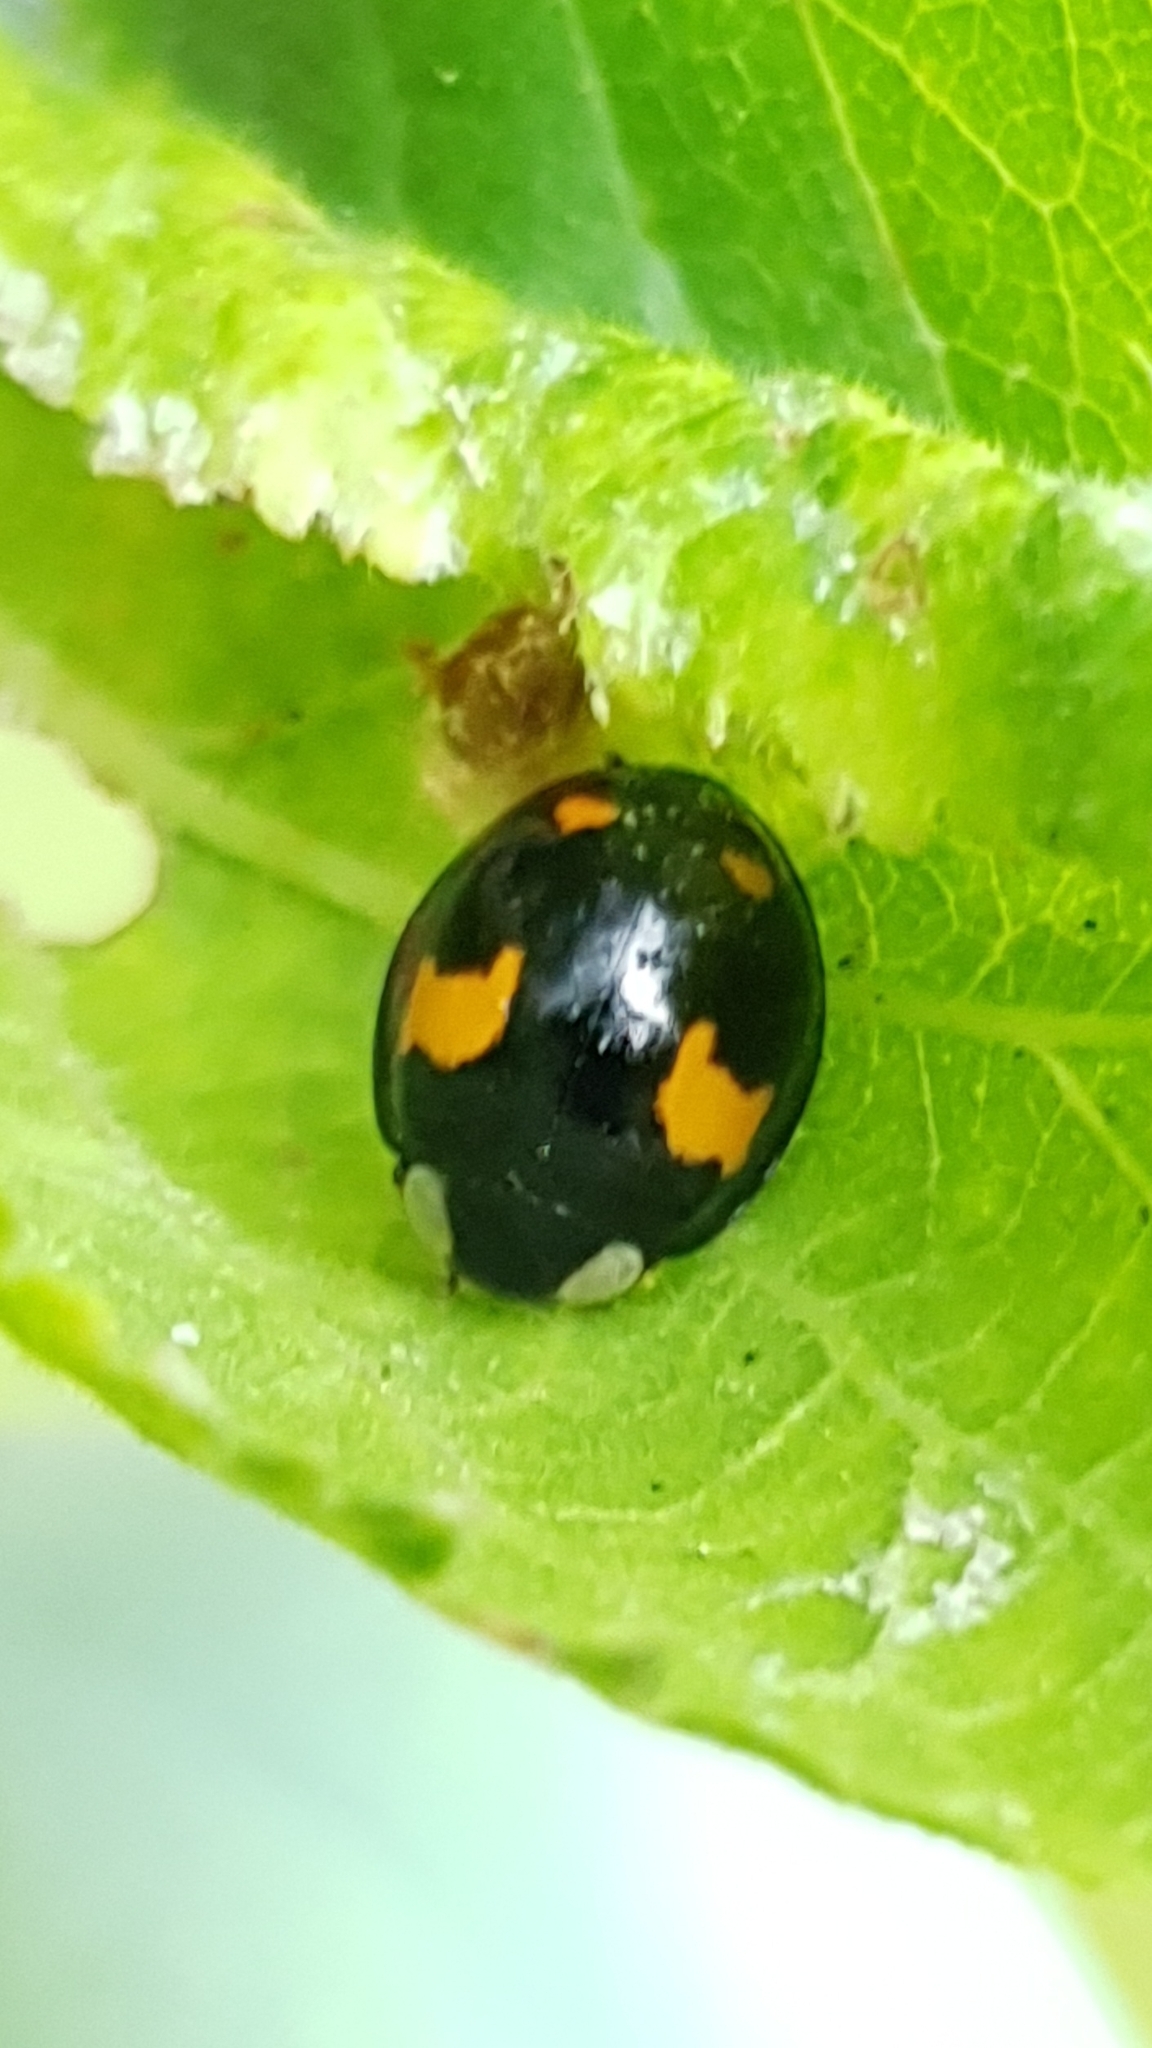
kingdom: Animalia
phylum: Arthropoda
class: Insecta
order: Coleoptera
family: Coccinellidae
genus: Harmonia
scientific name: Harmonia axyridis
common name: Harlequin ladybird
